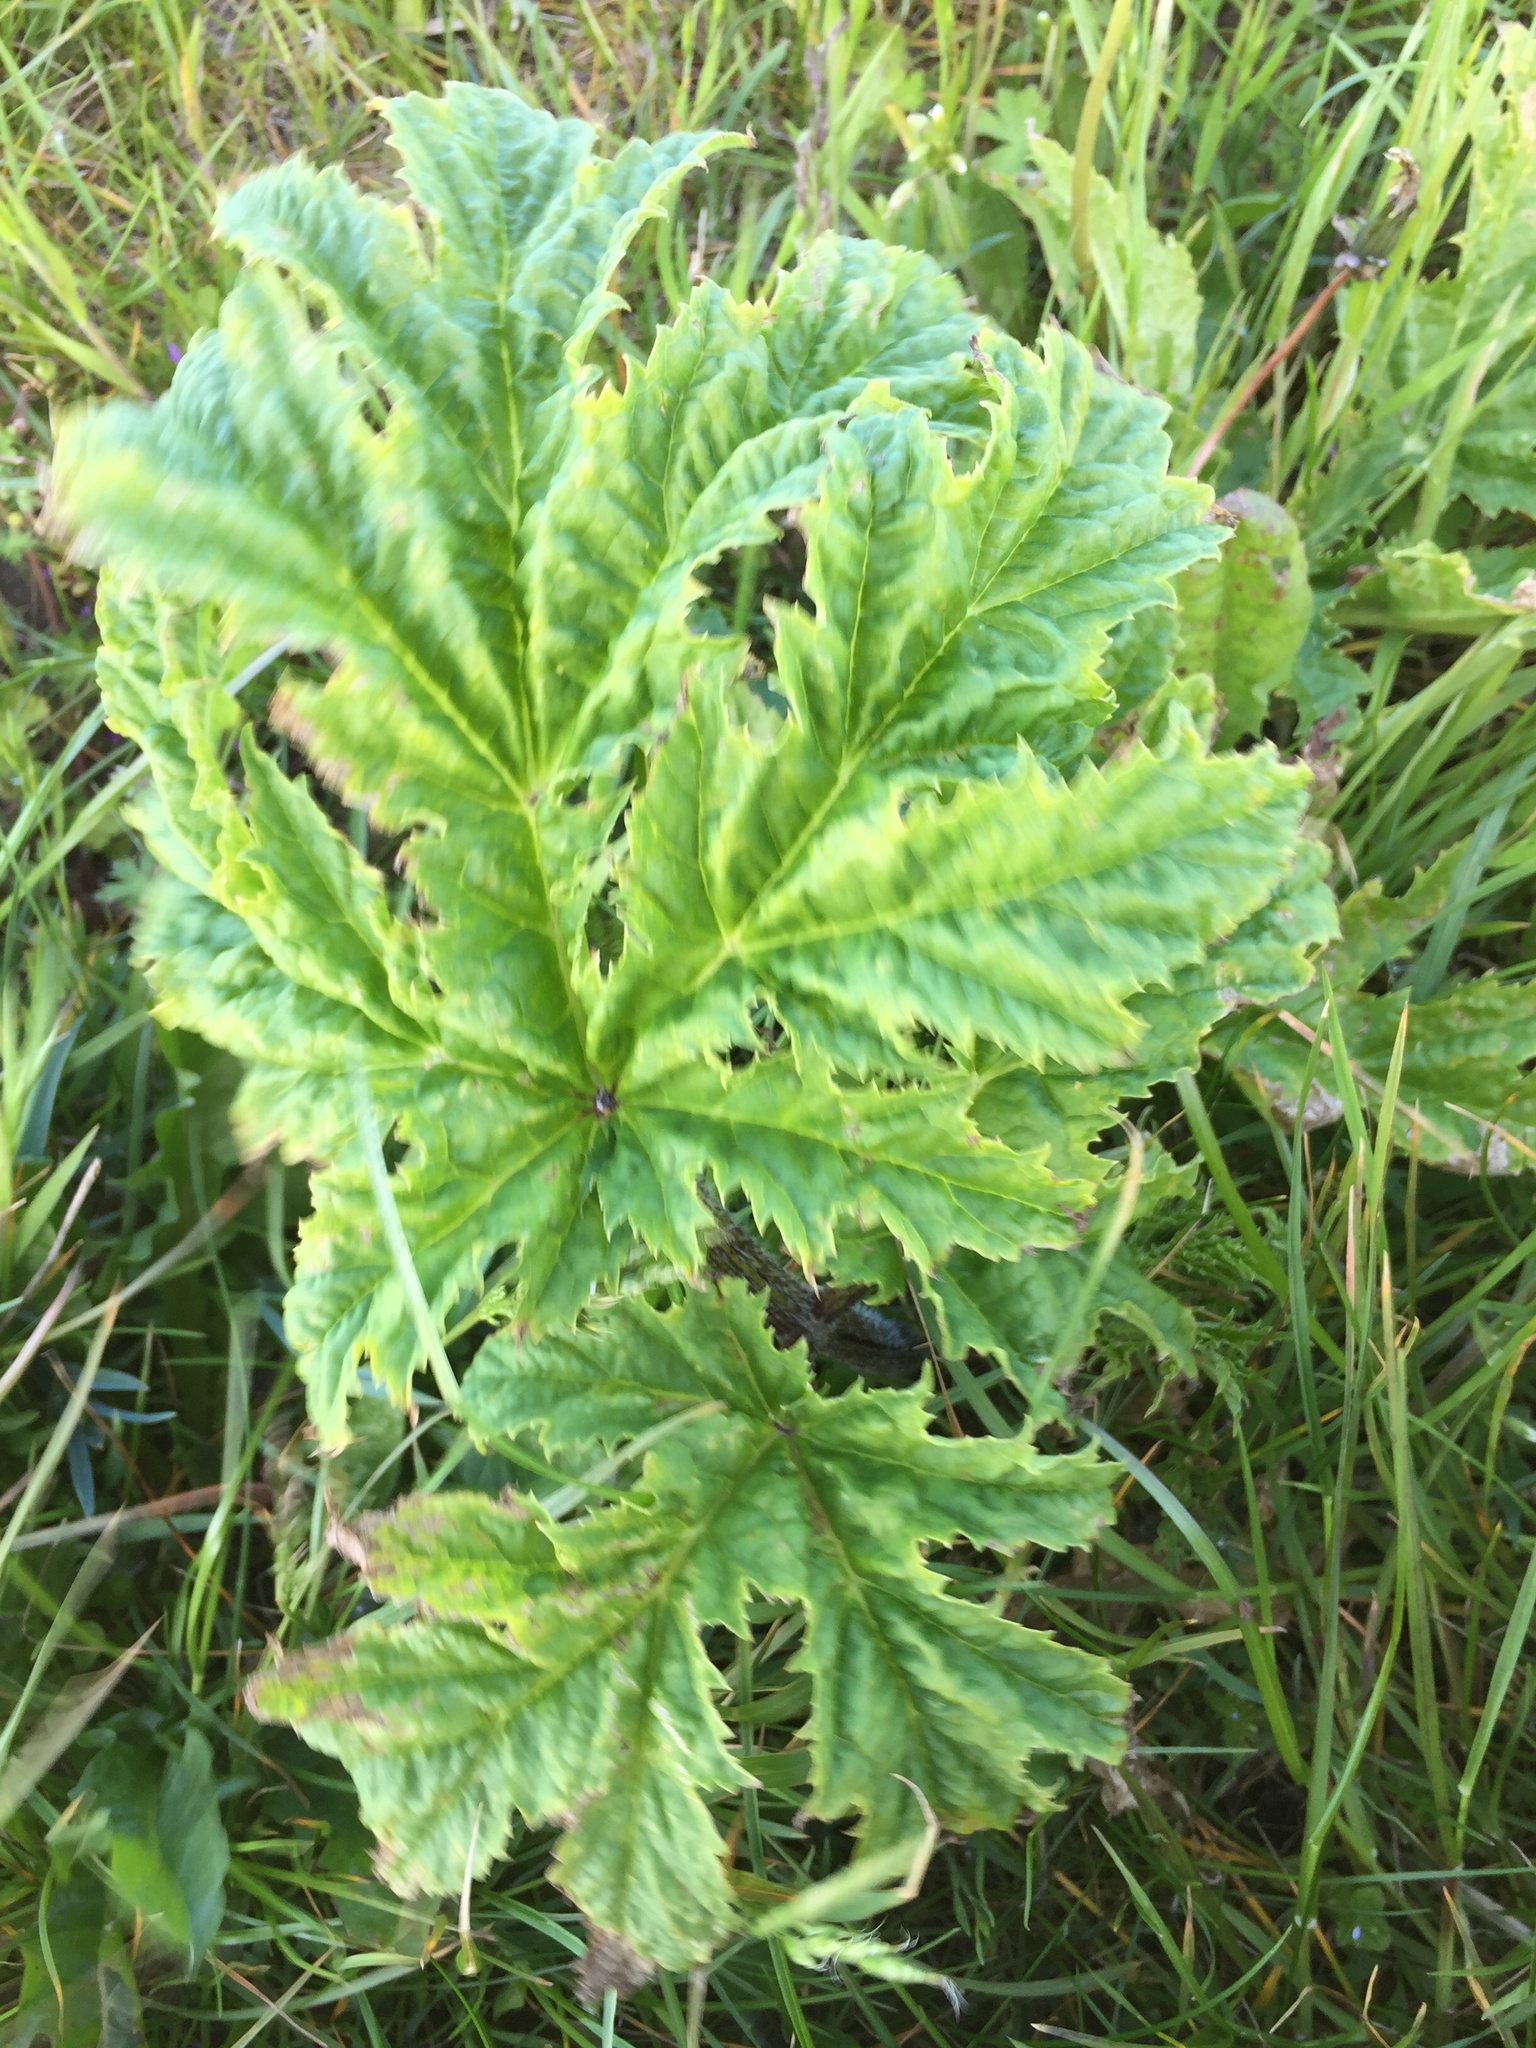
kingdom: Plantae
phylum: Tracheophyta
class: Magnoliopsida
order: Apiales
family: Apiaceae
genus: Heracleum
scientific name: Heracleum mantegazzianum
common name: Giant hogweed
